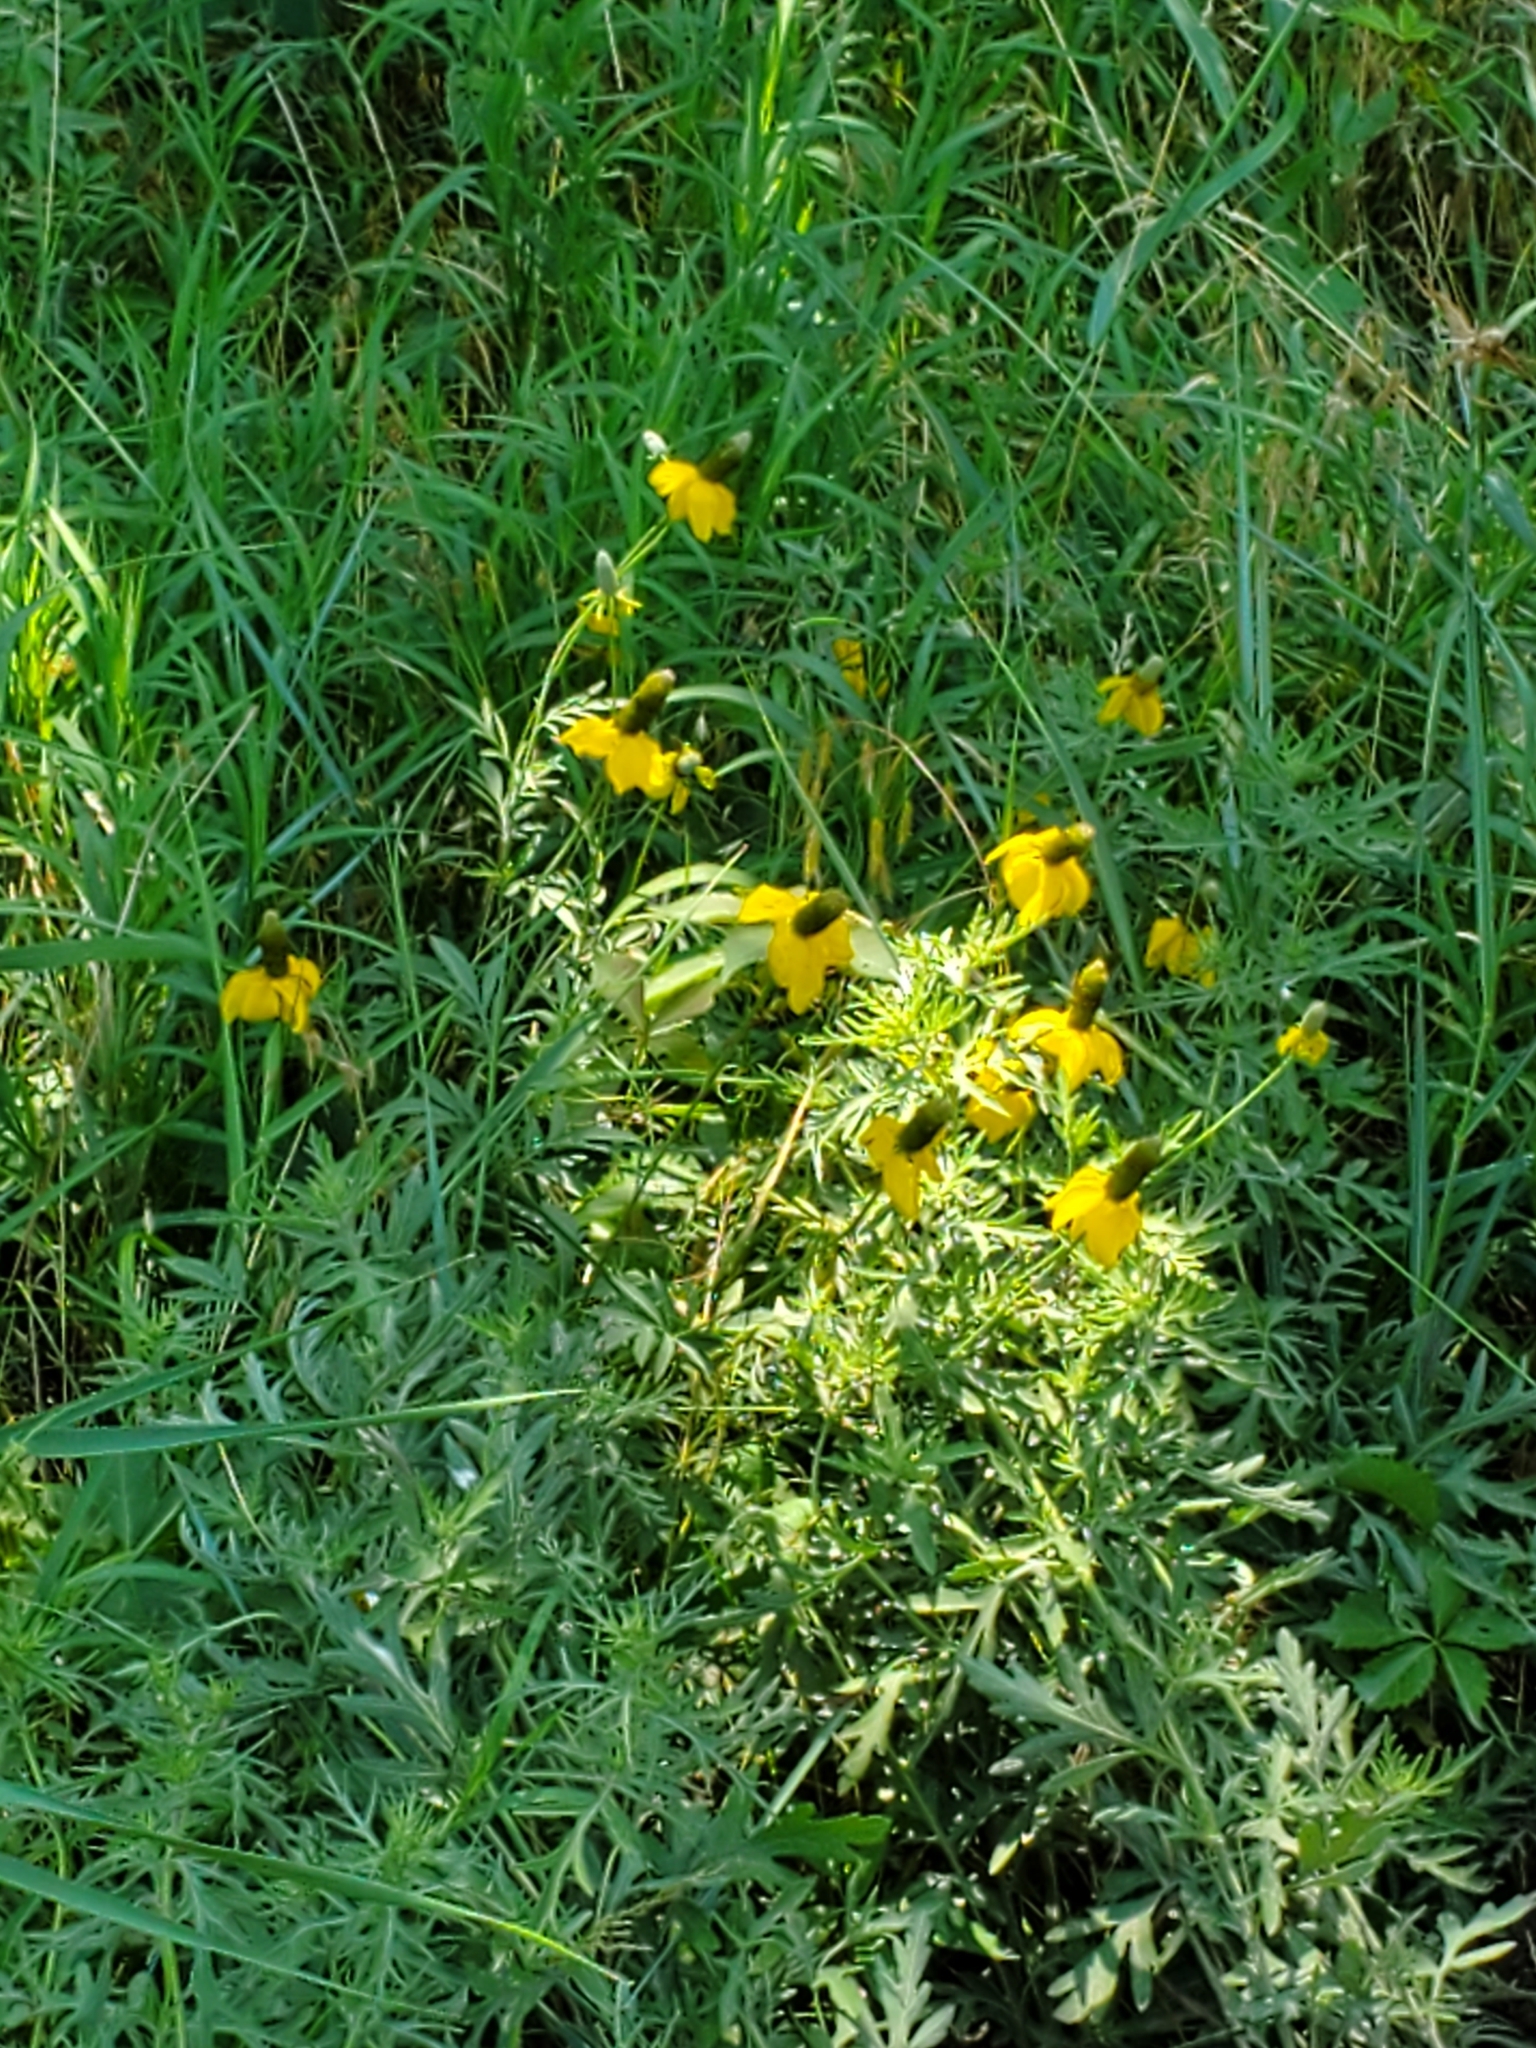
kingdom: Plantae
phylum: Tracheophyta
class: Magnoliopsida
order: Asterales
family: Asteraceae
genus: Ratibida
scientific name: Ratibida columnifera
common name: Prairie coneflower
